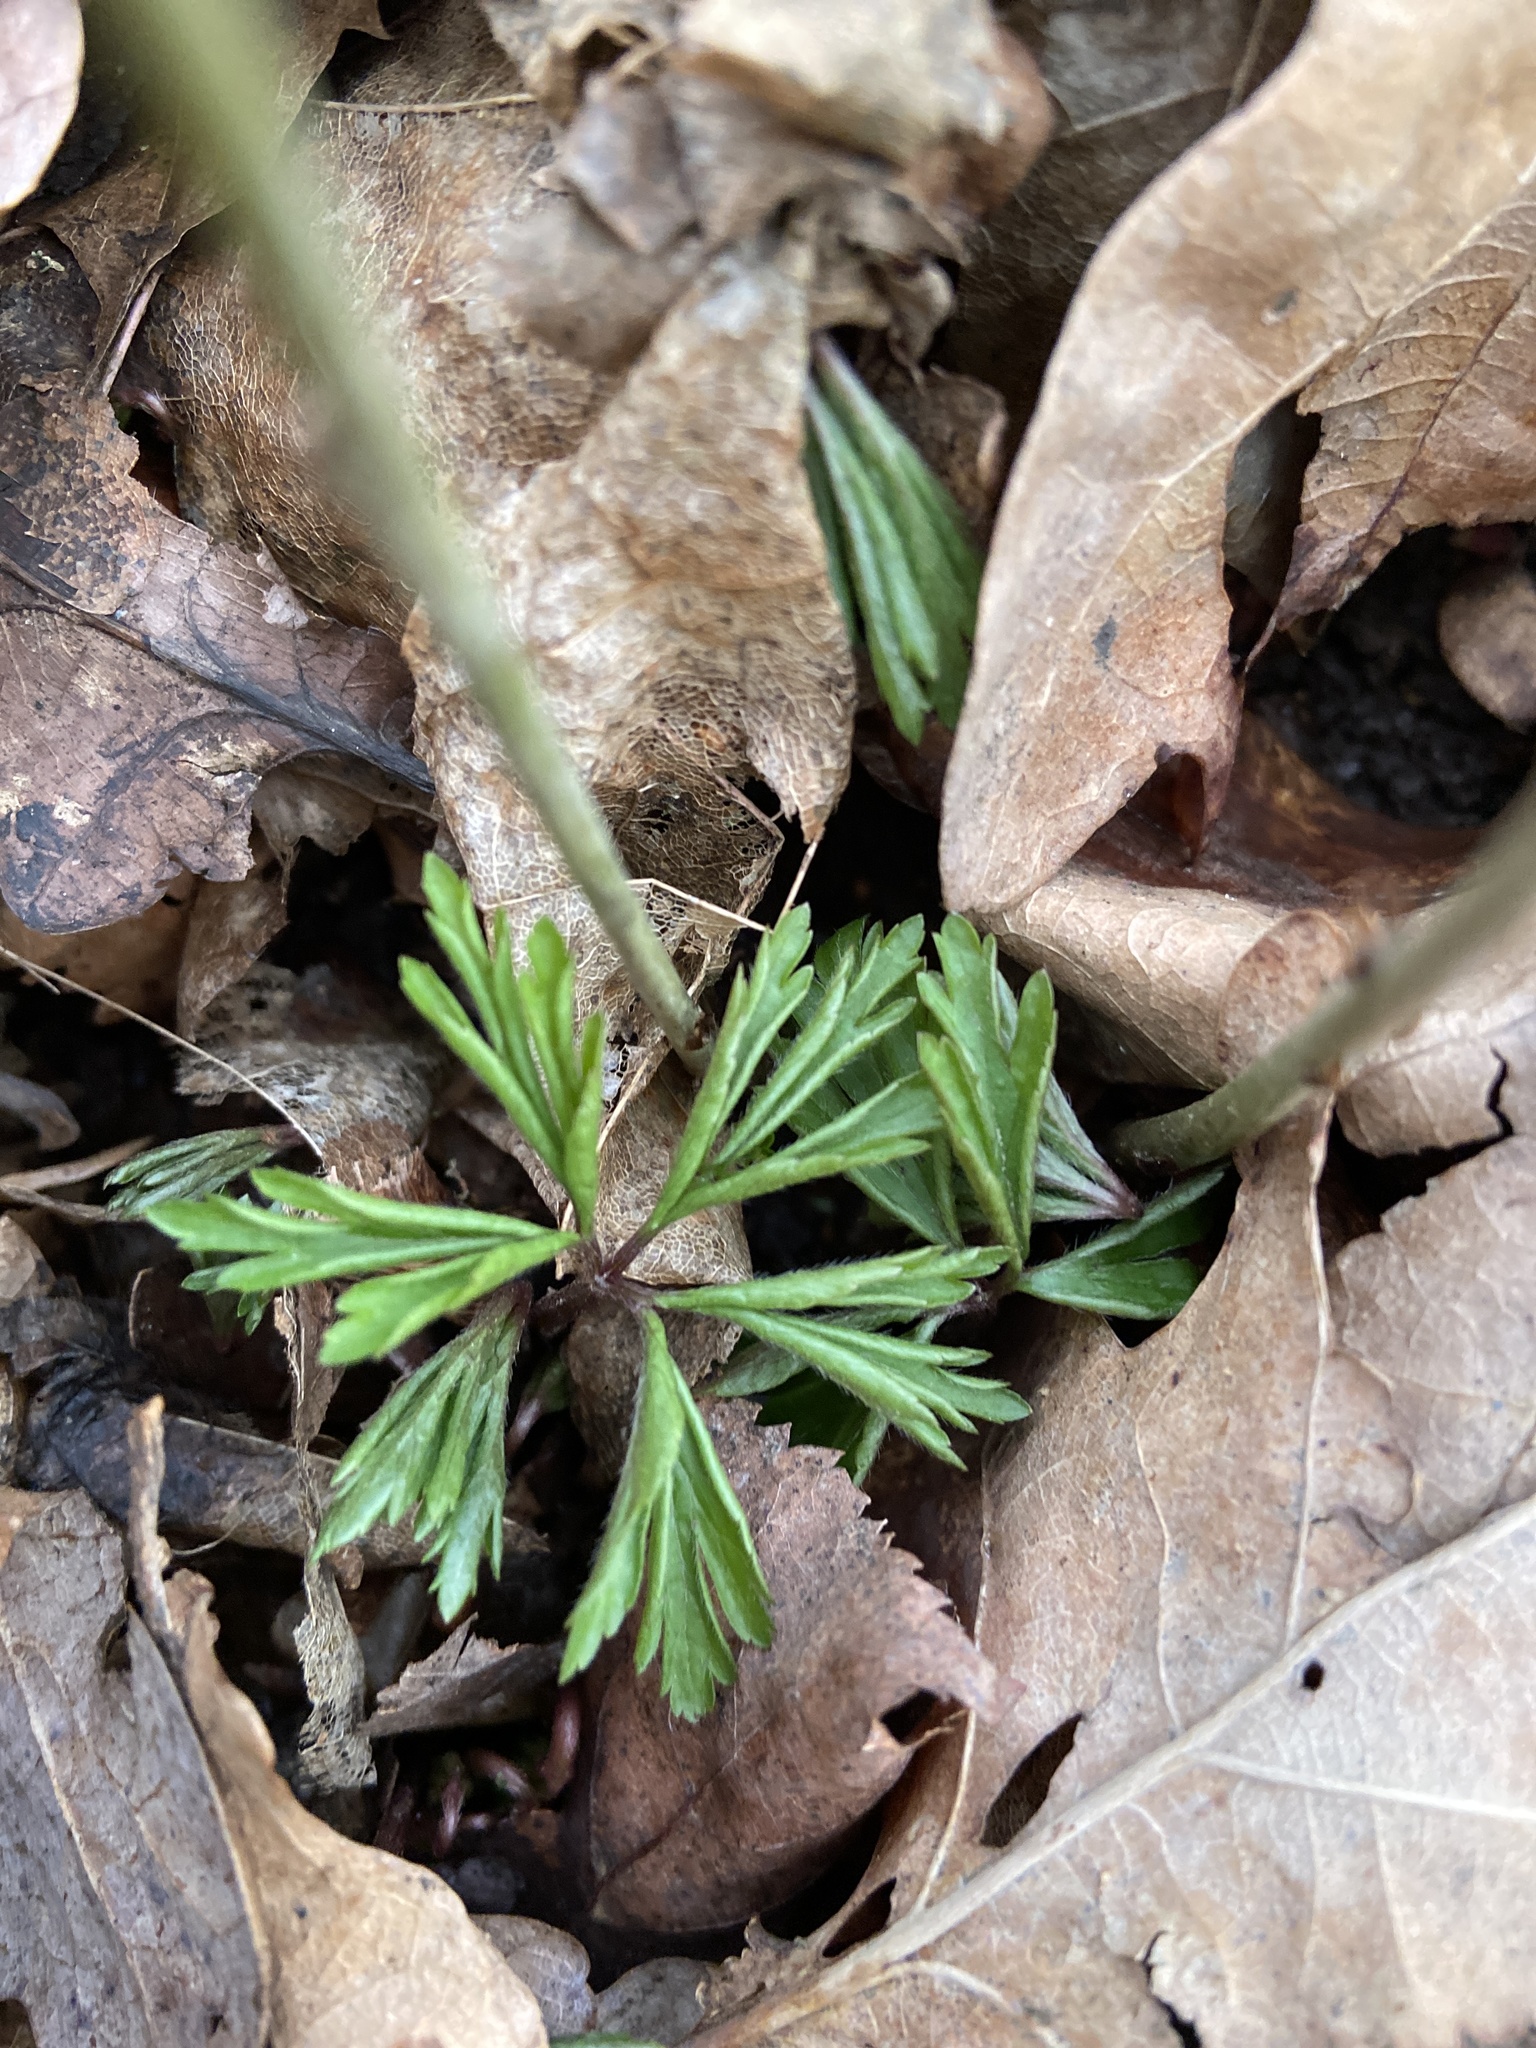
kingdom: Plantae
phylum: Tracheophyta
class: Magnoliopsida
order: Ranunculales
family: Ranunculaceae
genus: Anemone
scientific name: Anemone nemorosa
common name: Wood anemone
